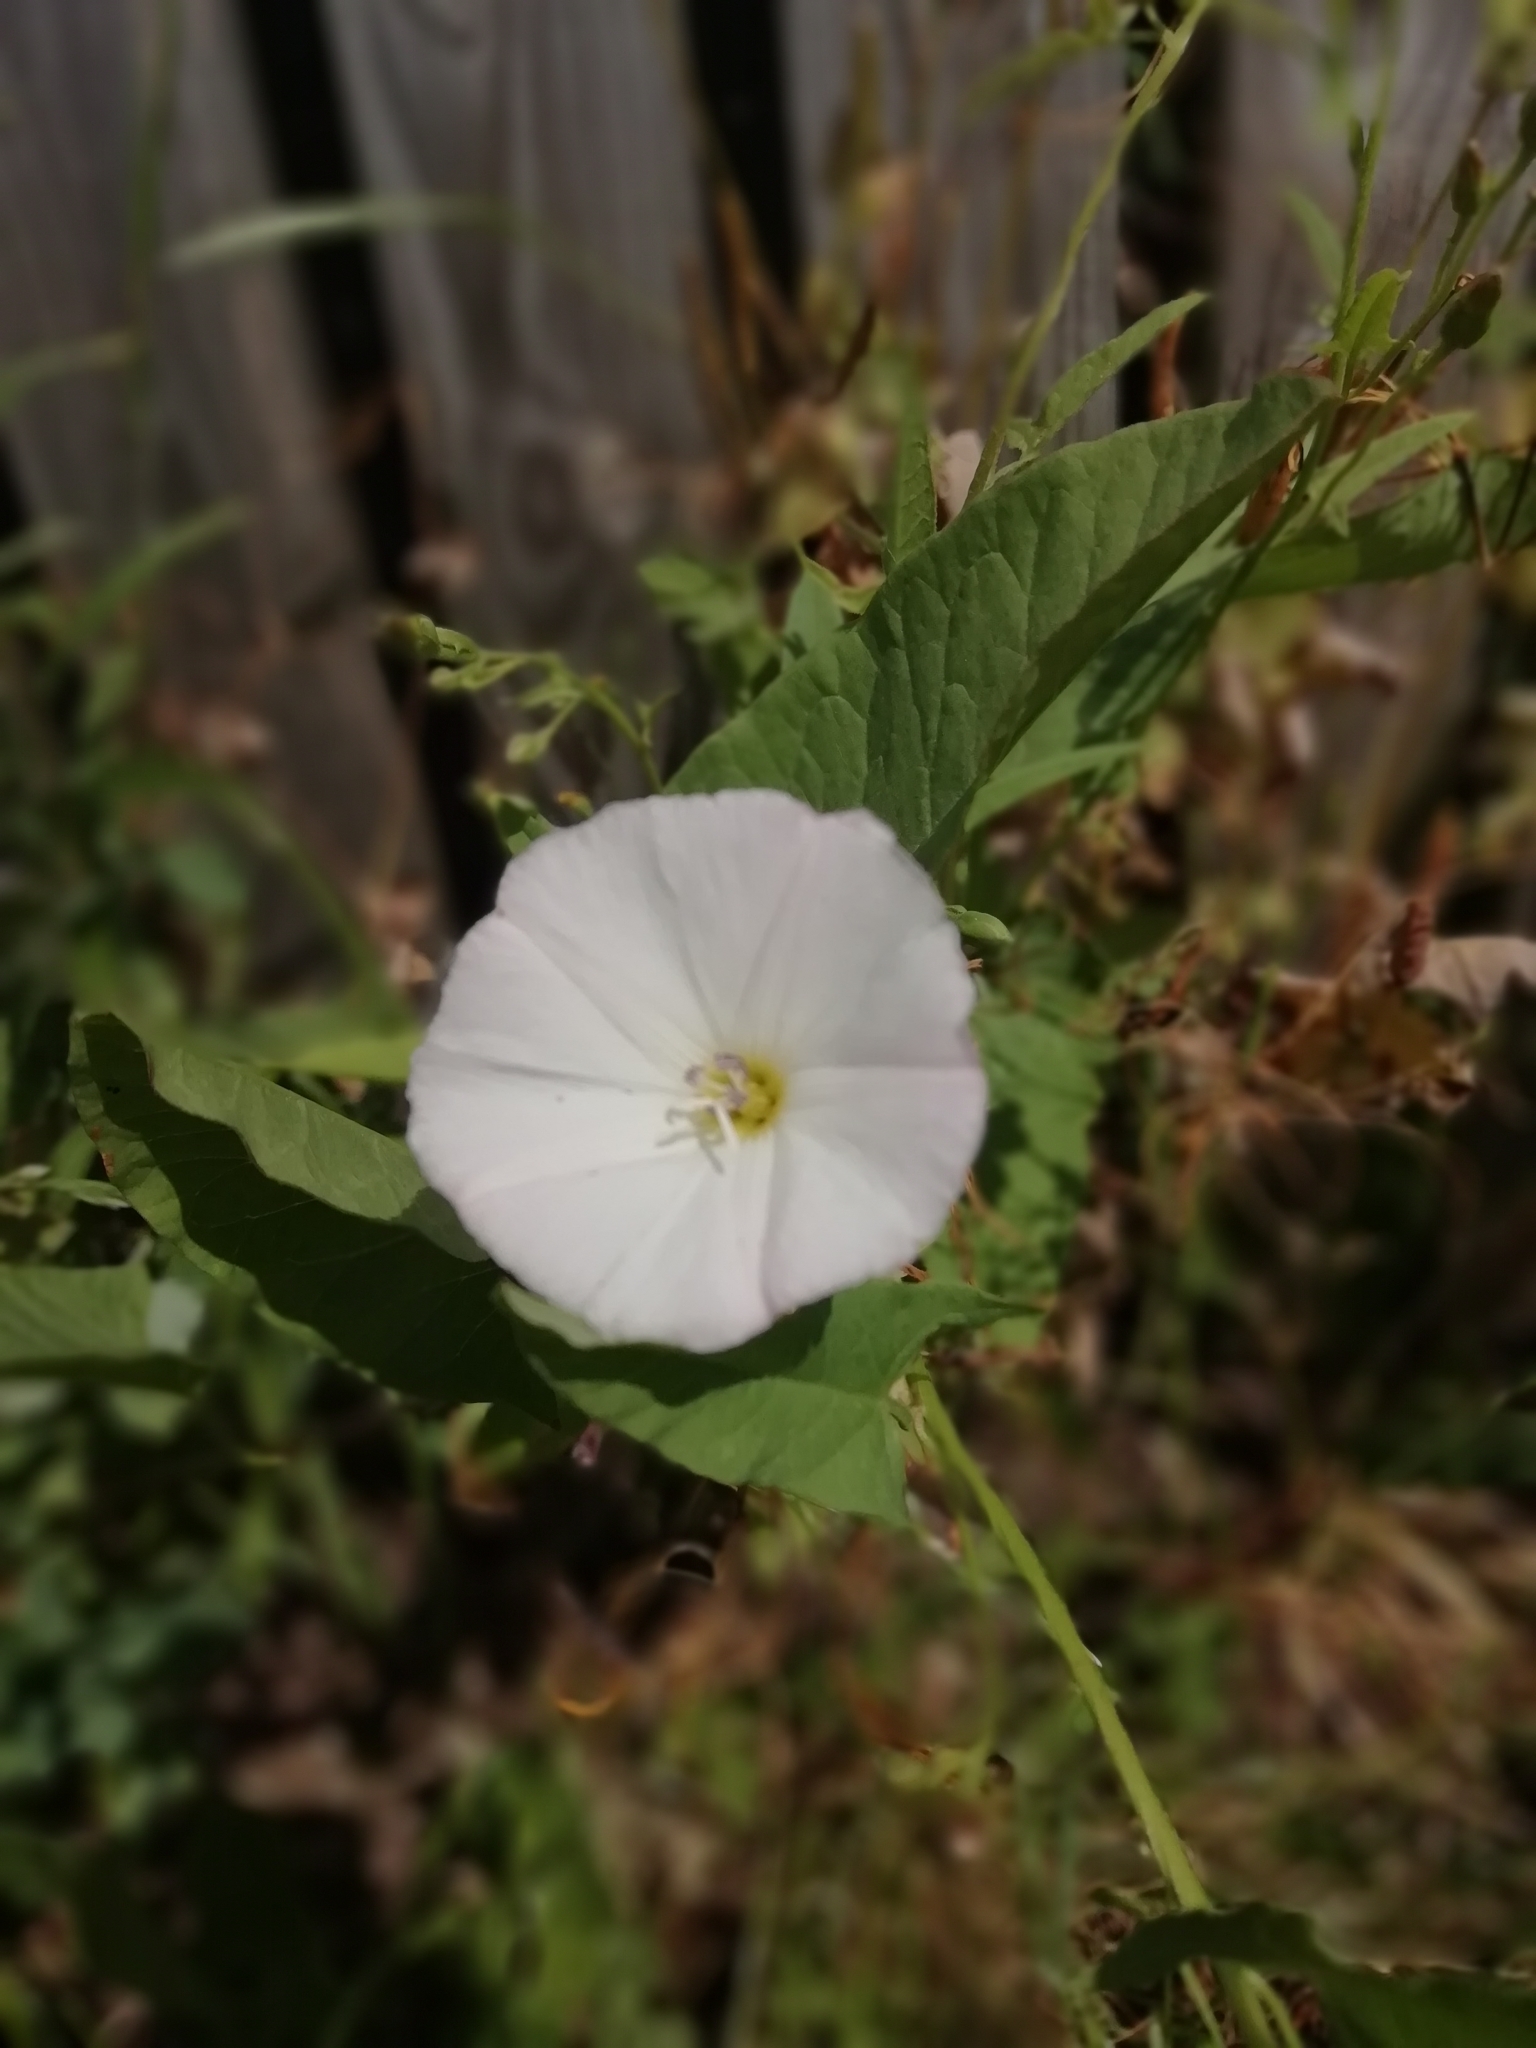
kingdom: Plantae
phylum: Tracheophyta
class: Magnoliopsida
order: Solanales
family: Convolvulaceae
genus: Convolvulus
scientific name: Convolvulus arvensis
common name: Field bindweed
